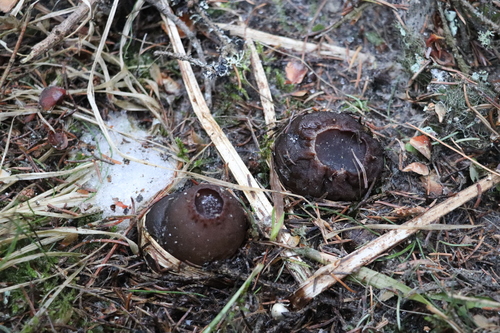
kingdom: Fungi
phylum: Ascomycota
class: Pezizomycetes
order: Pezizales
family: Sarcosomataceae
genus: Sarcosoma
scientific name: Sarcosoma globosum
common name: Charred-pancake cup
